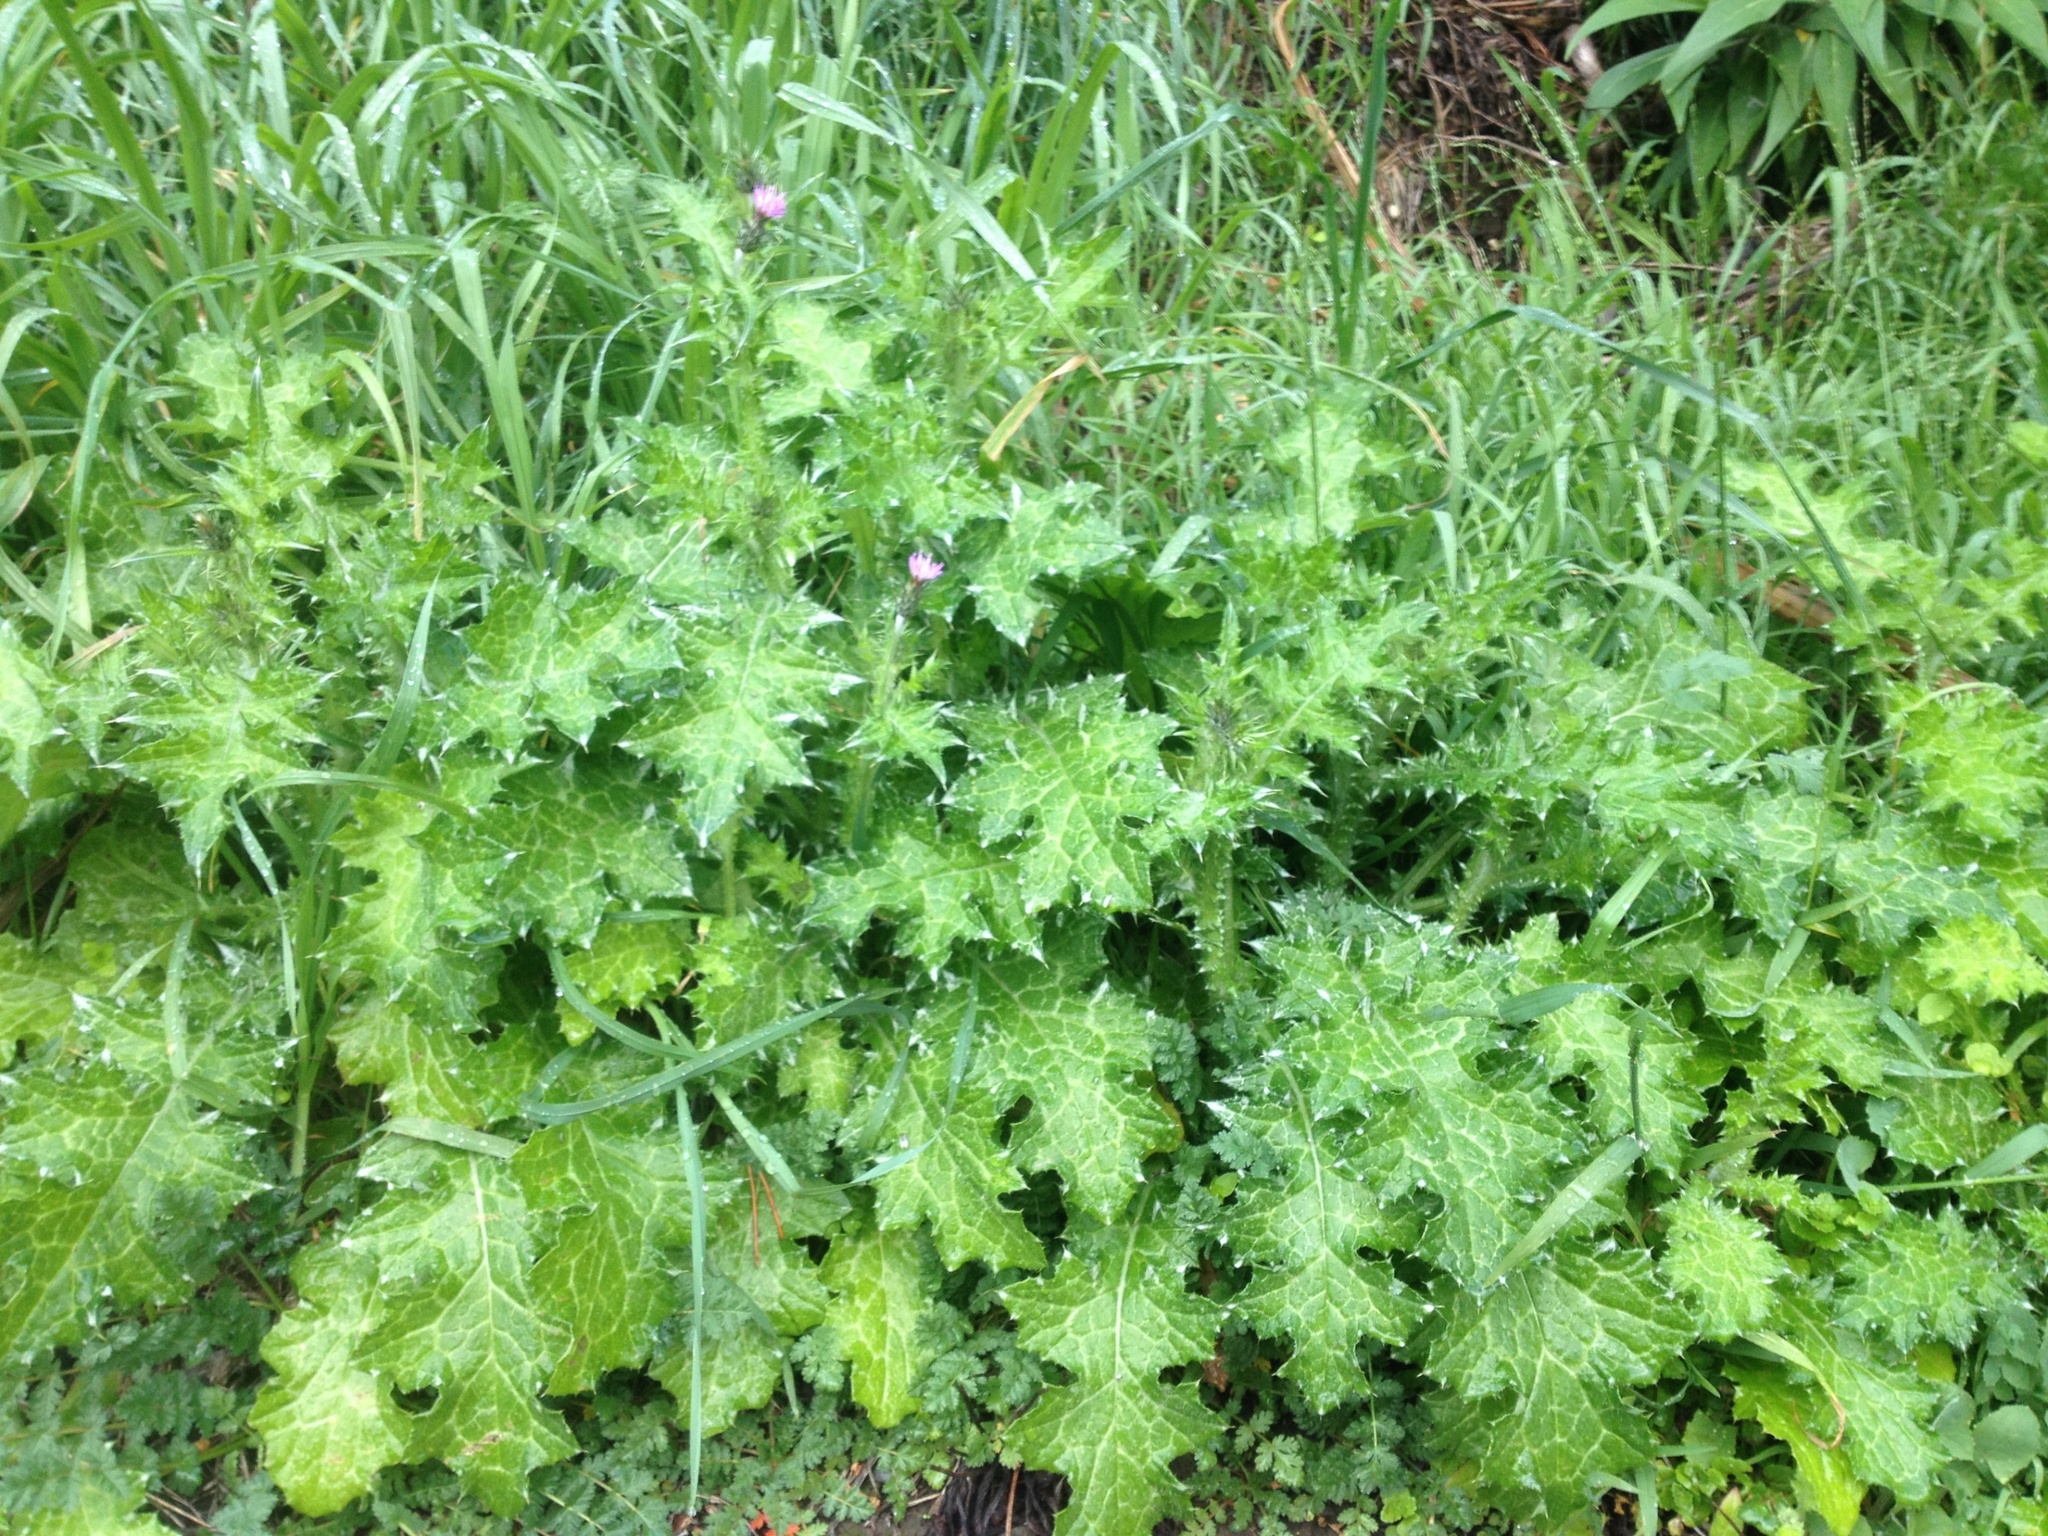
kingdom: Plantae
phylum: Tracheophyta
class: Magnoliopsida
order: Asterales
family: Asteraceae
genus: Carduus
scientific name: Carduus pycnocephalus
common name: Plymouth thistle
